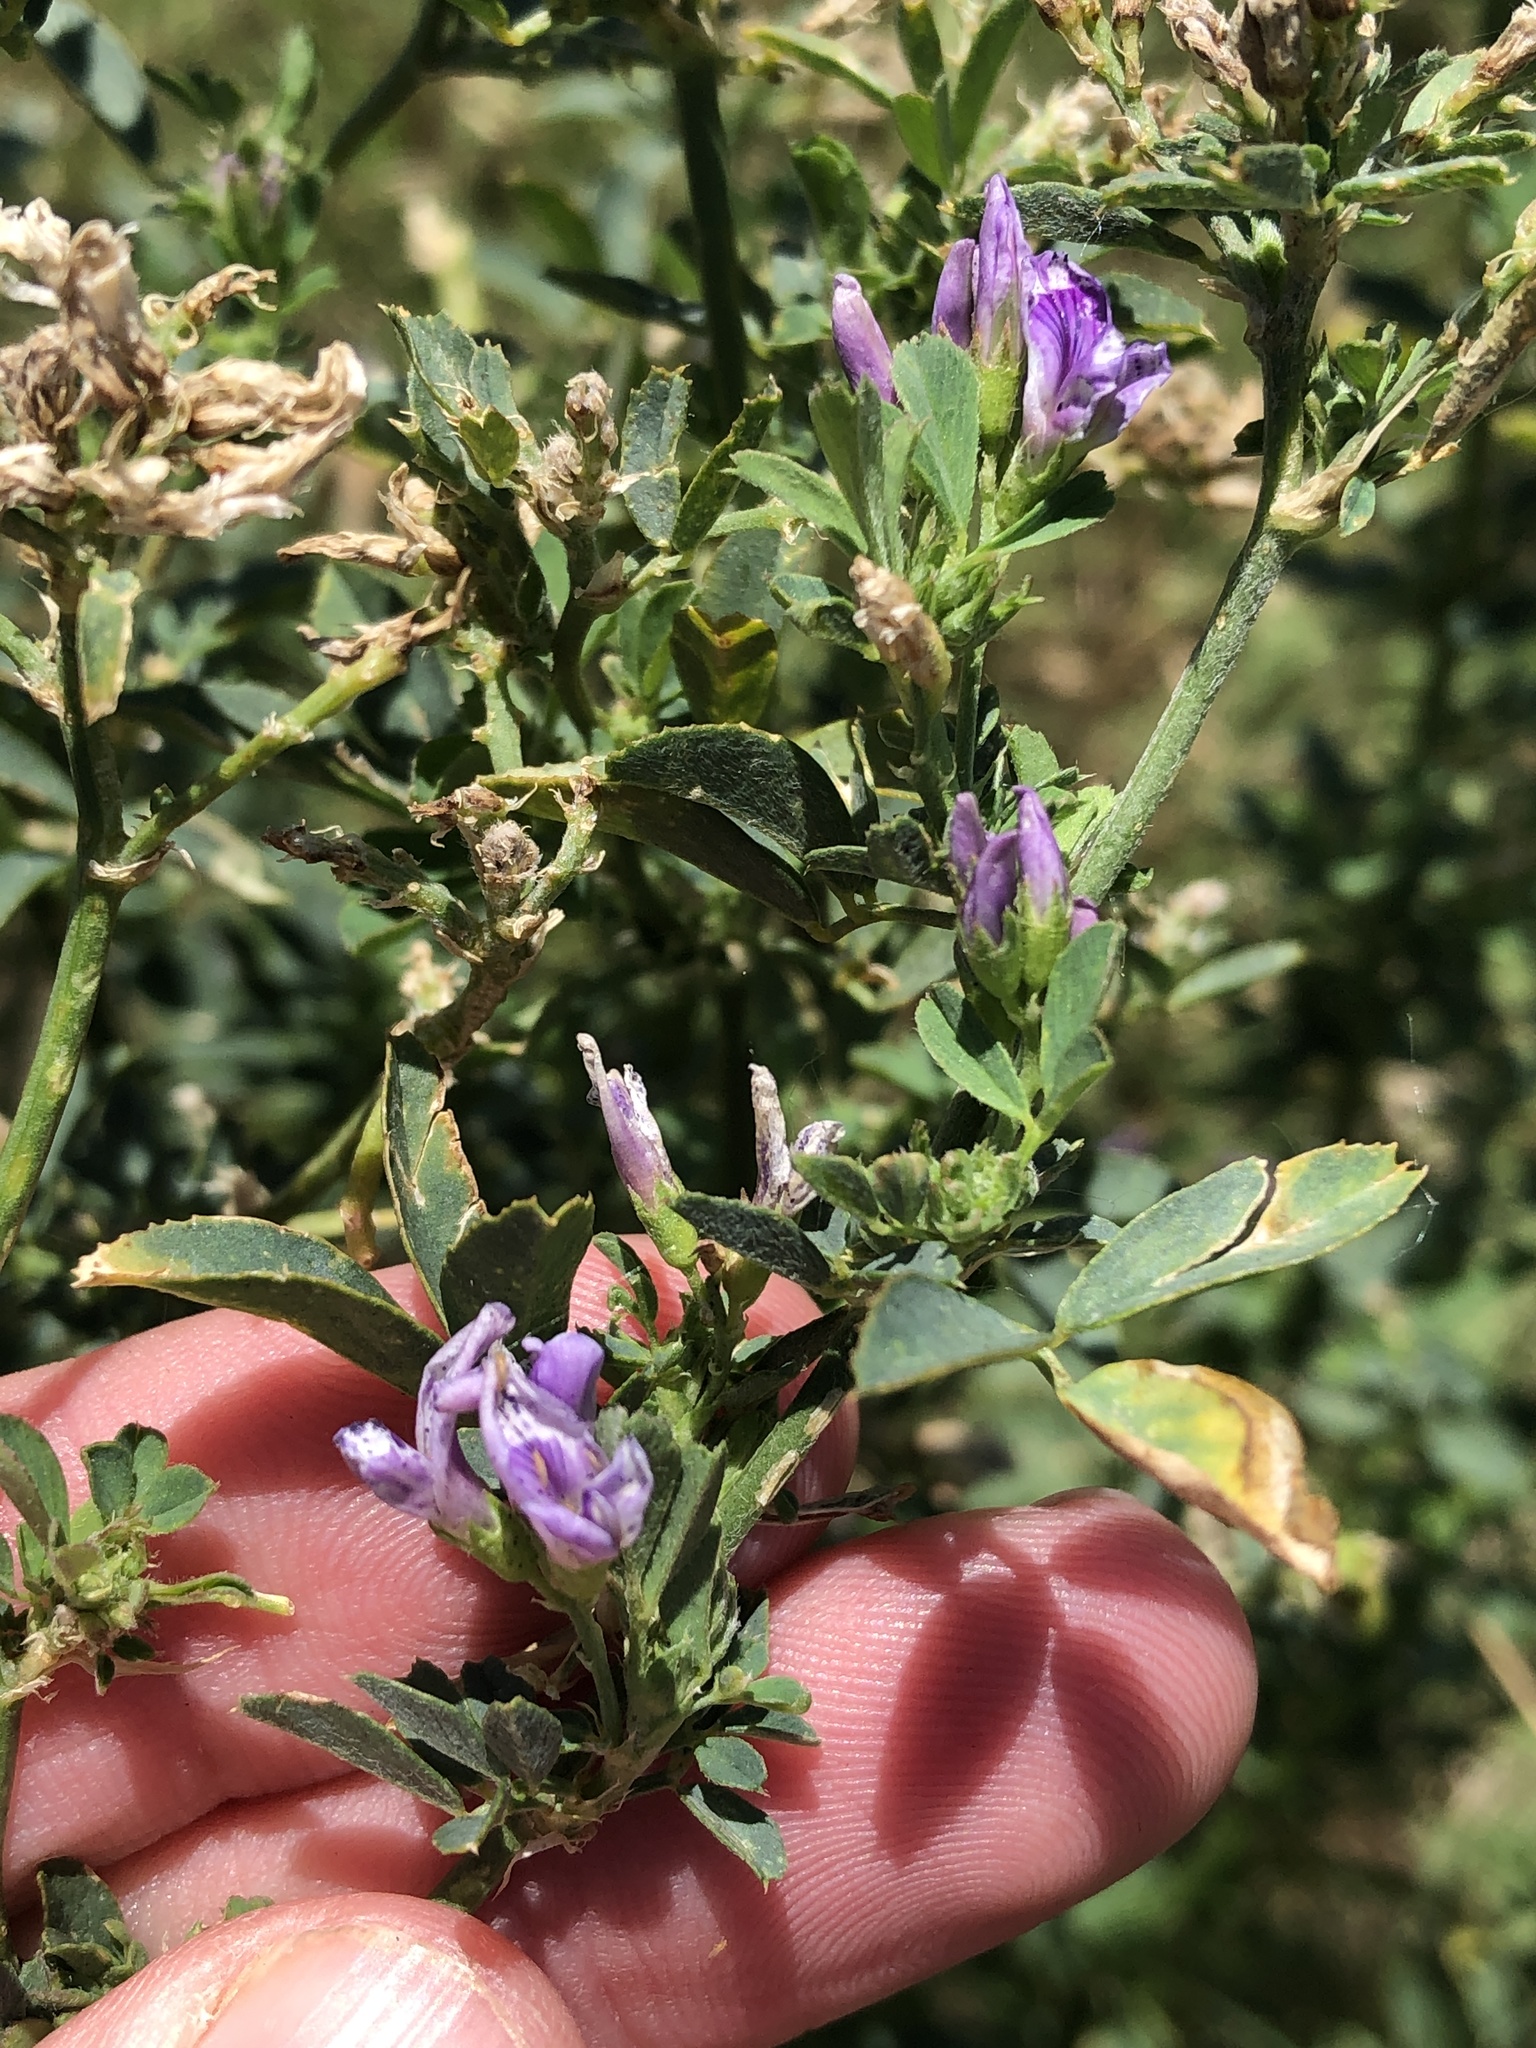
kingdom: Plantae
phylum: Tracheophyta
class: Magnoliopsida
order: Fabales
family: Fabaceae
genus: Medicago
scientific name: Medicago sativa
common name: Alfalfa
